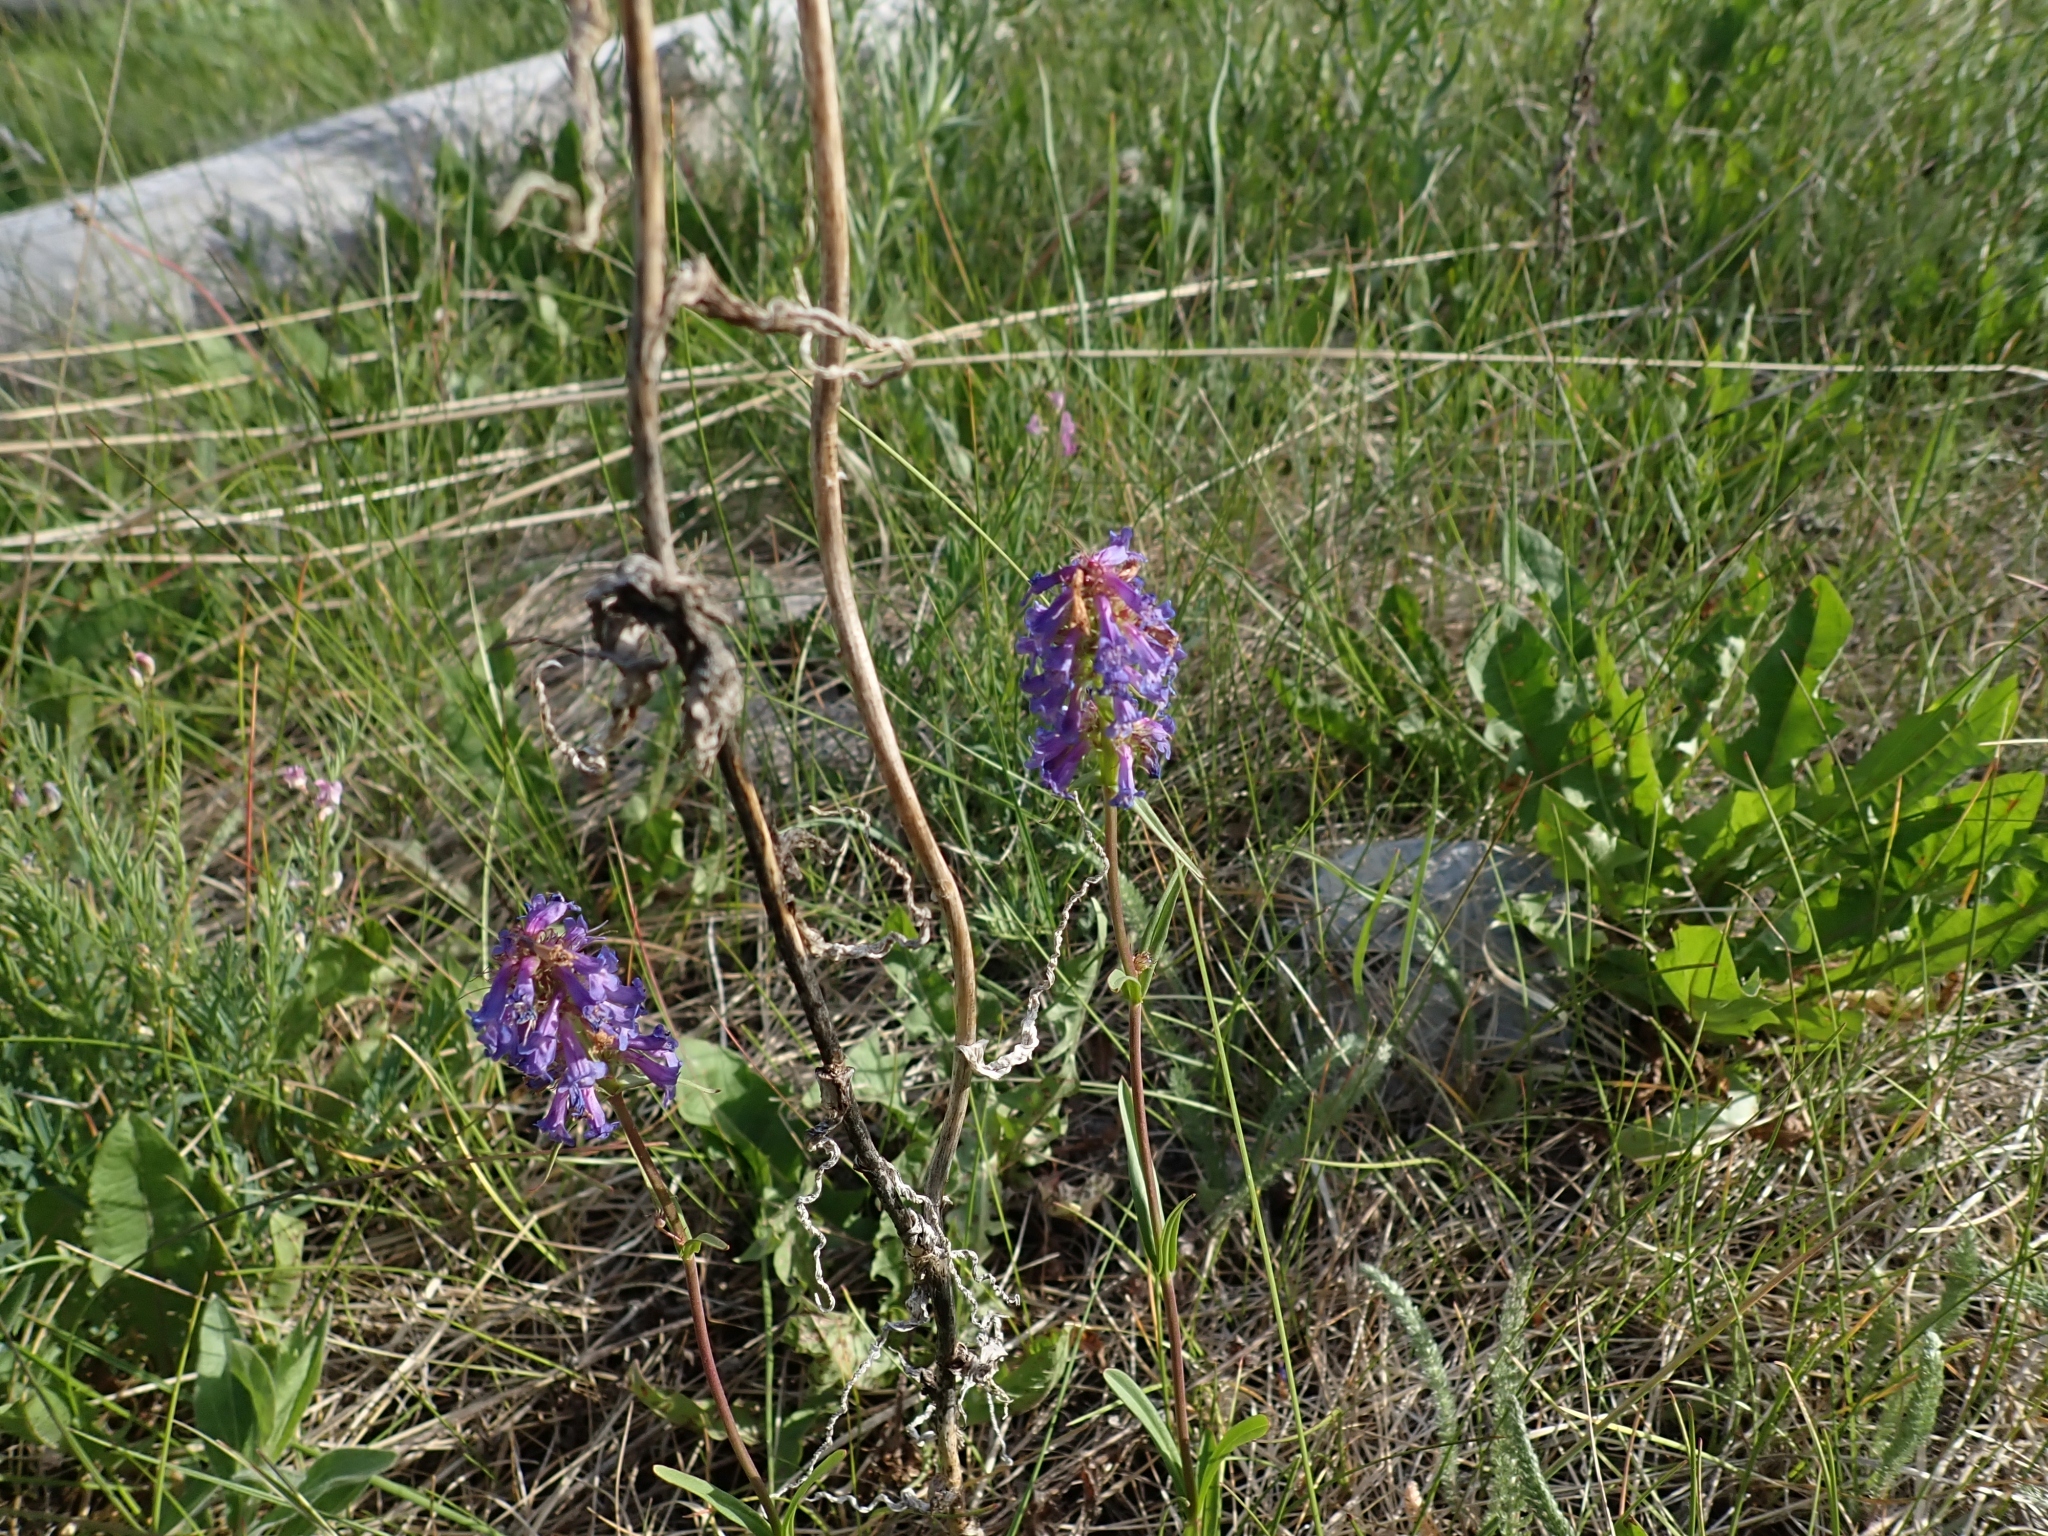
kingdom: Plantae
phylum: Tracheophyta
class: Magnoliopsida
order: Lamiales
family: Plantaginaceae
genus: Penstemon
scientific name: Penstemon procerus
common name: Small-flower penstemon
